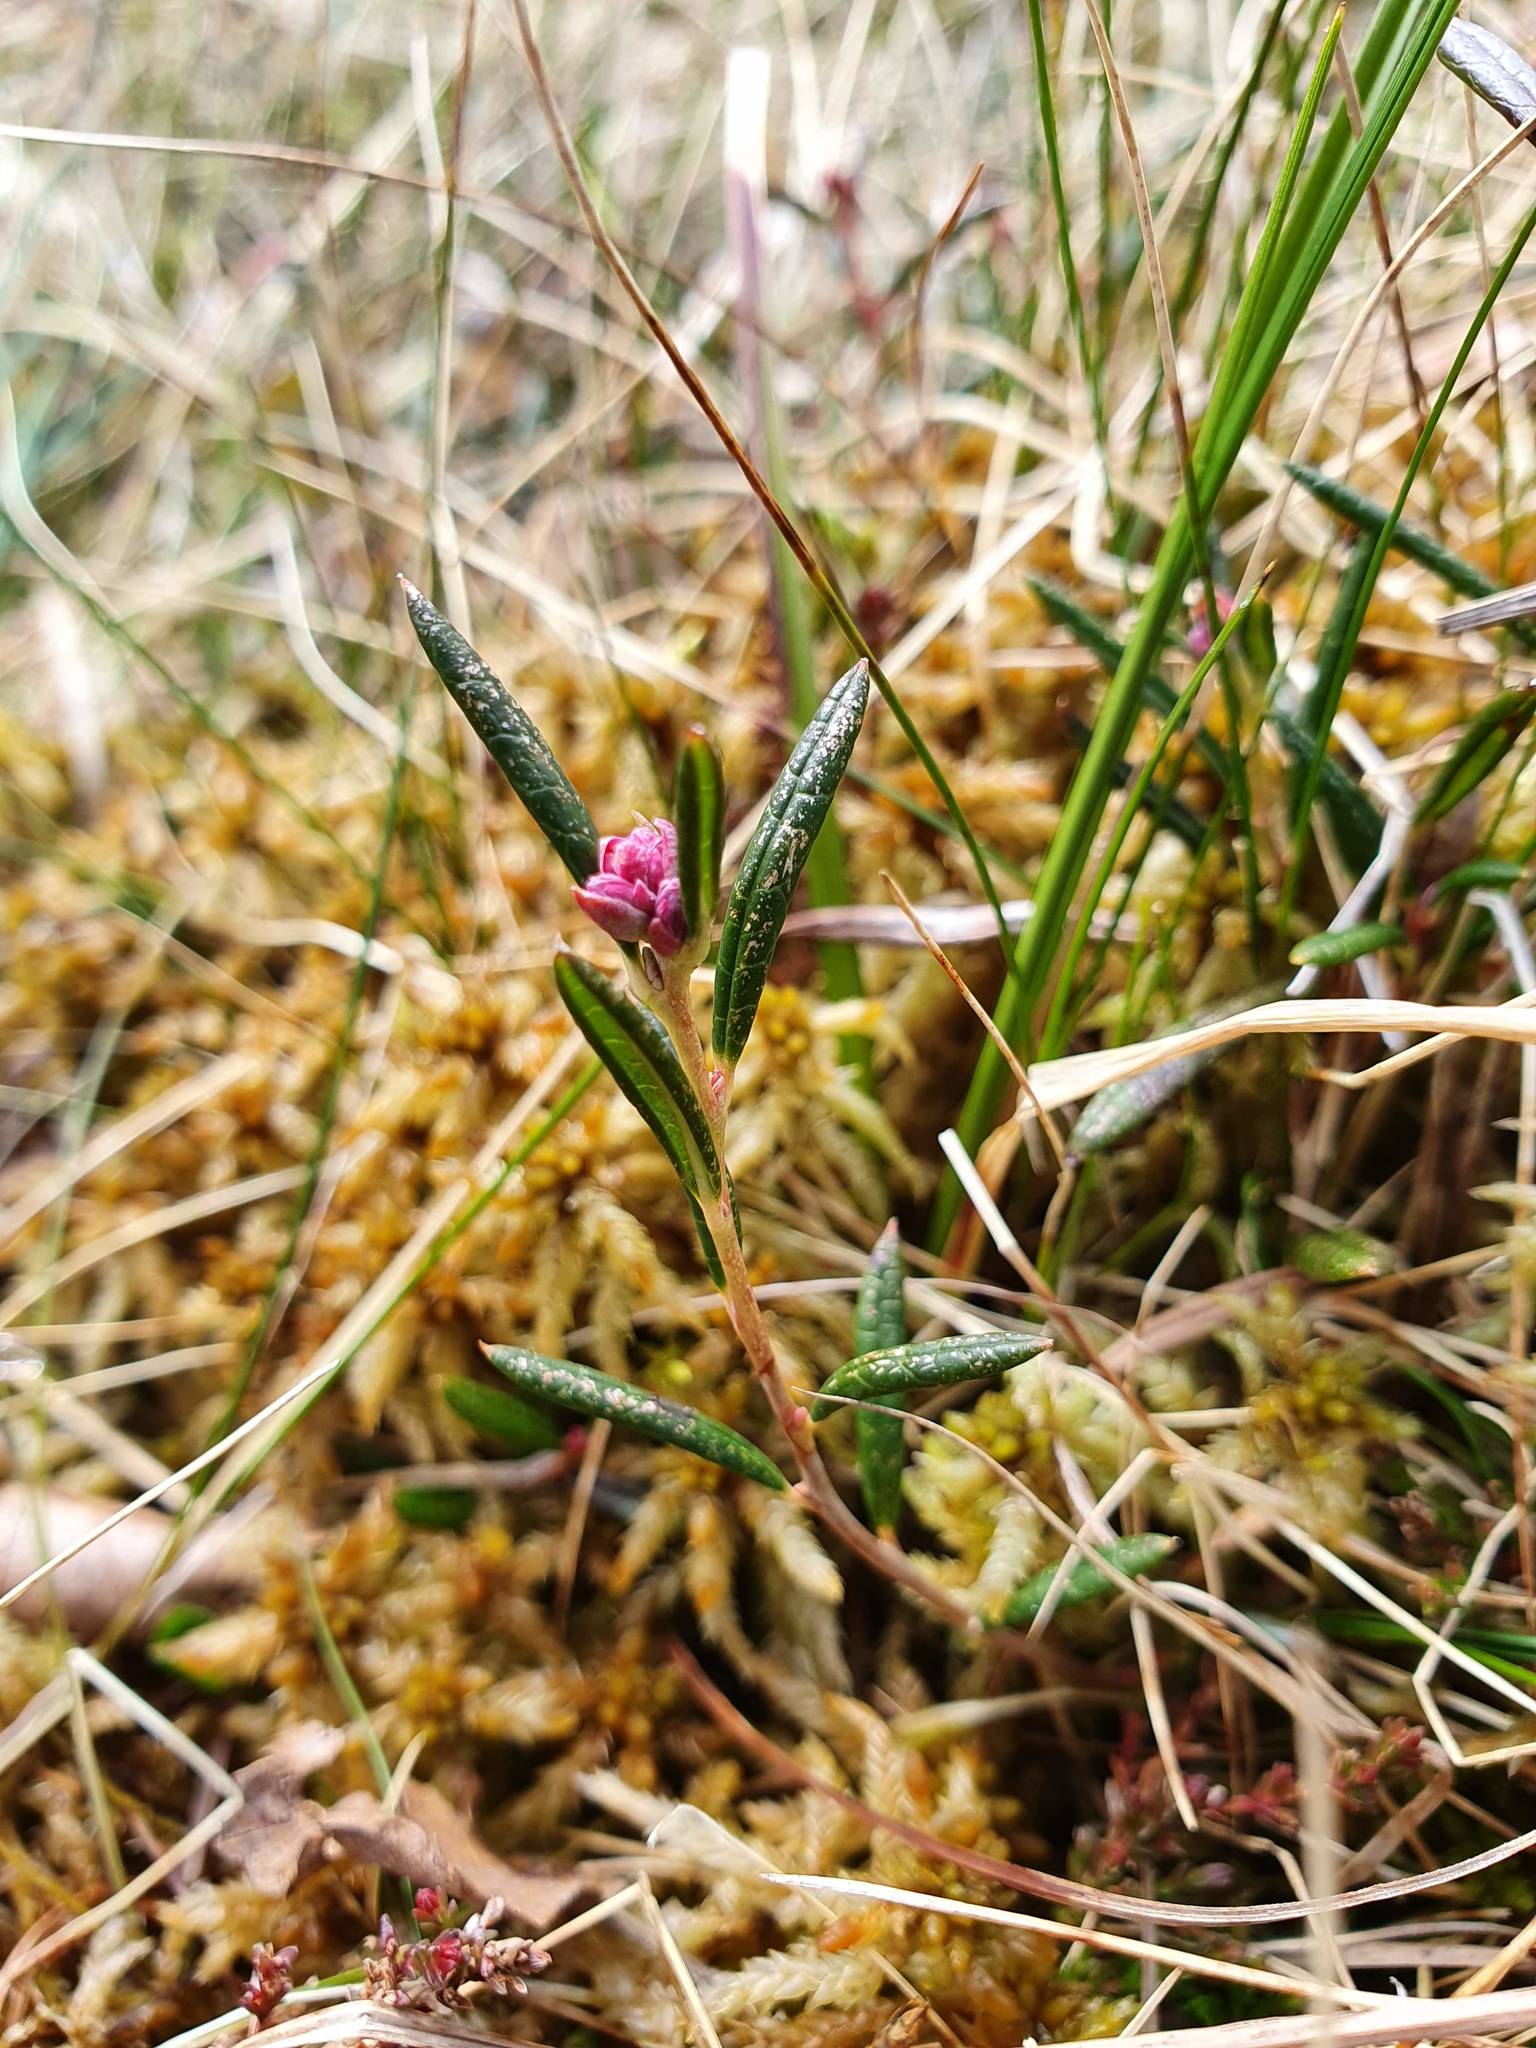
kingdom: Plantae
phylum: Tracheophyta
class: Magnoliopsida
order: Ericales
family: Ericaceae
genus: Andromeda
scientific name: Andromeda polifolia
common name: Bog-rosemary
